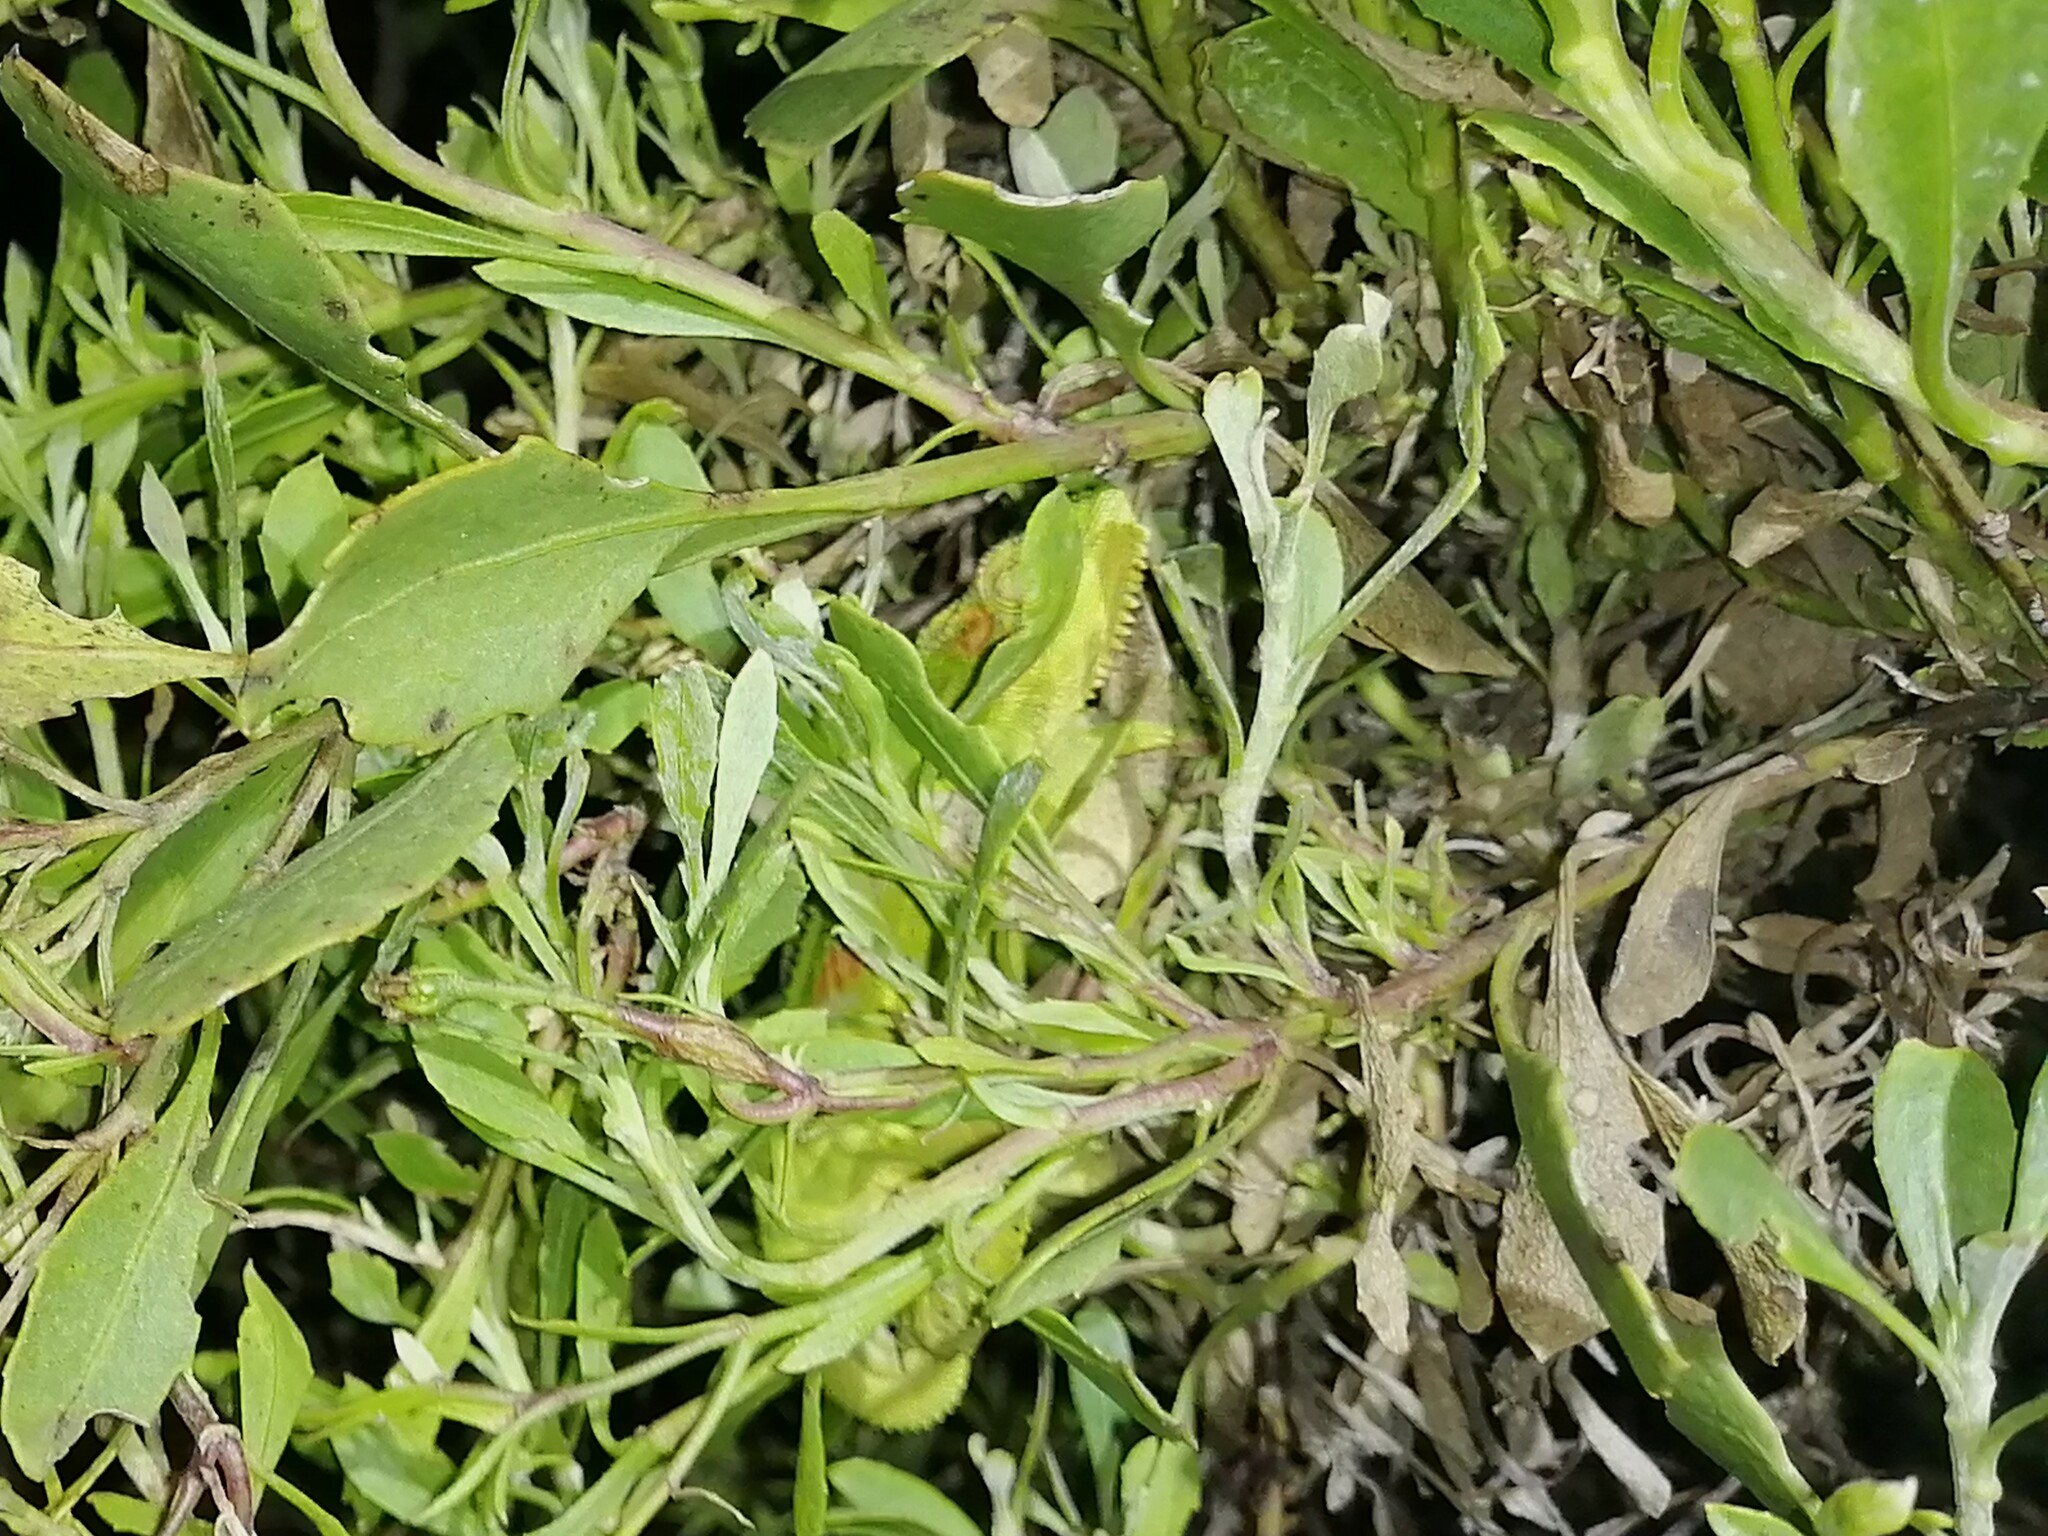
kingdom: Animalia
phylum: Chordata
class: Squamata
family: Chamaeleonidae
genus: Bradypodion
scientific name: Bradypodion pumilum
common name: Cape dwarf chameleon
